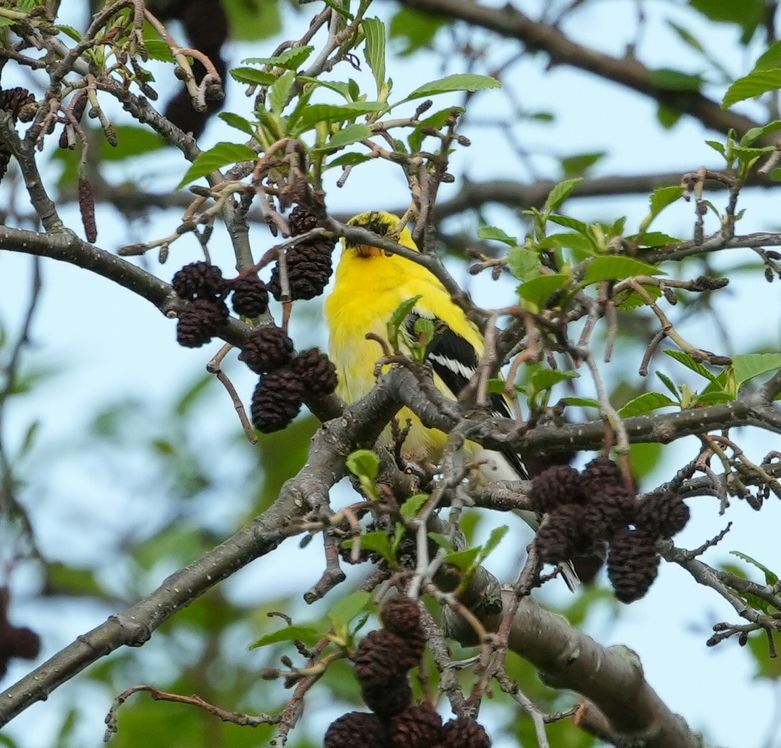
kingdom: Animalia
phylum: Chordata
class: Aves
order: Passeriformes
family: Fringillidae
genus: Spinus
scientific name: Spinus tristis
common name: American goldfinch
